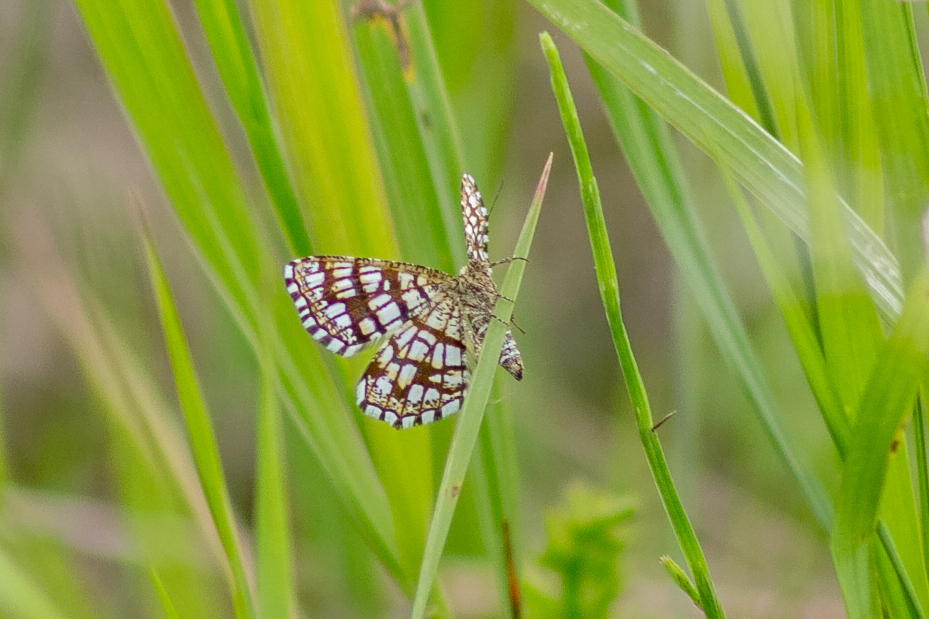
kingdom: Animalia
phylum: Arthropoda
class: Insecta
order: Lepidoptera
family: Geometridae
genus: Chiasmia
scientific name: Chiasmia clathrata
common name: Latticed heath
